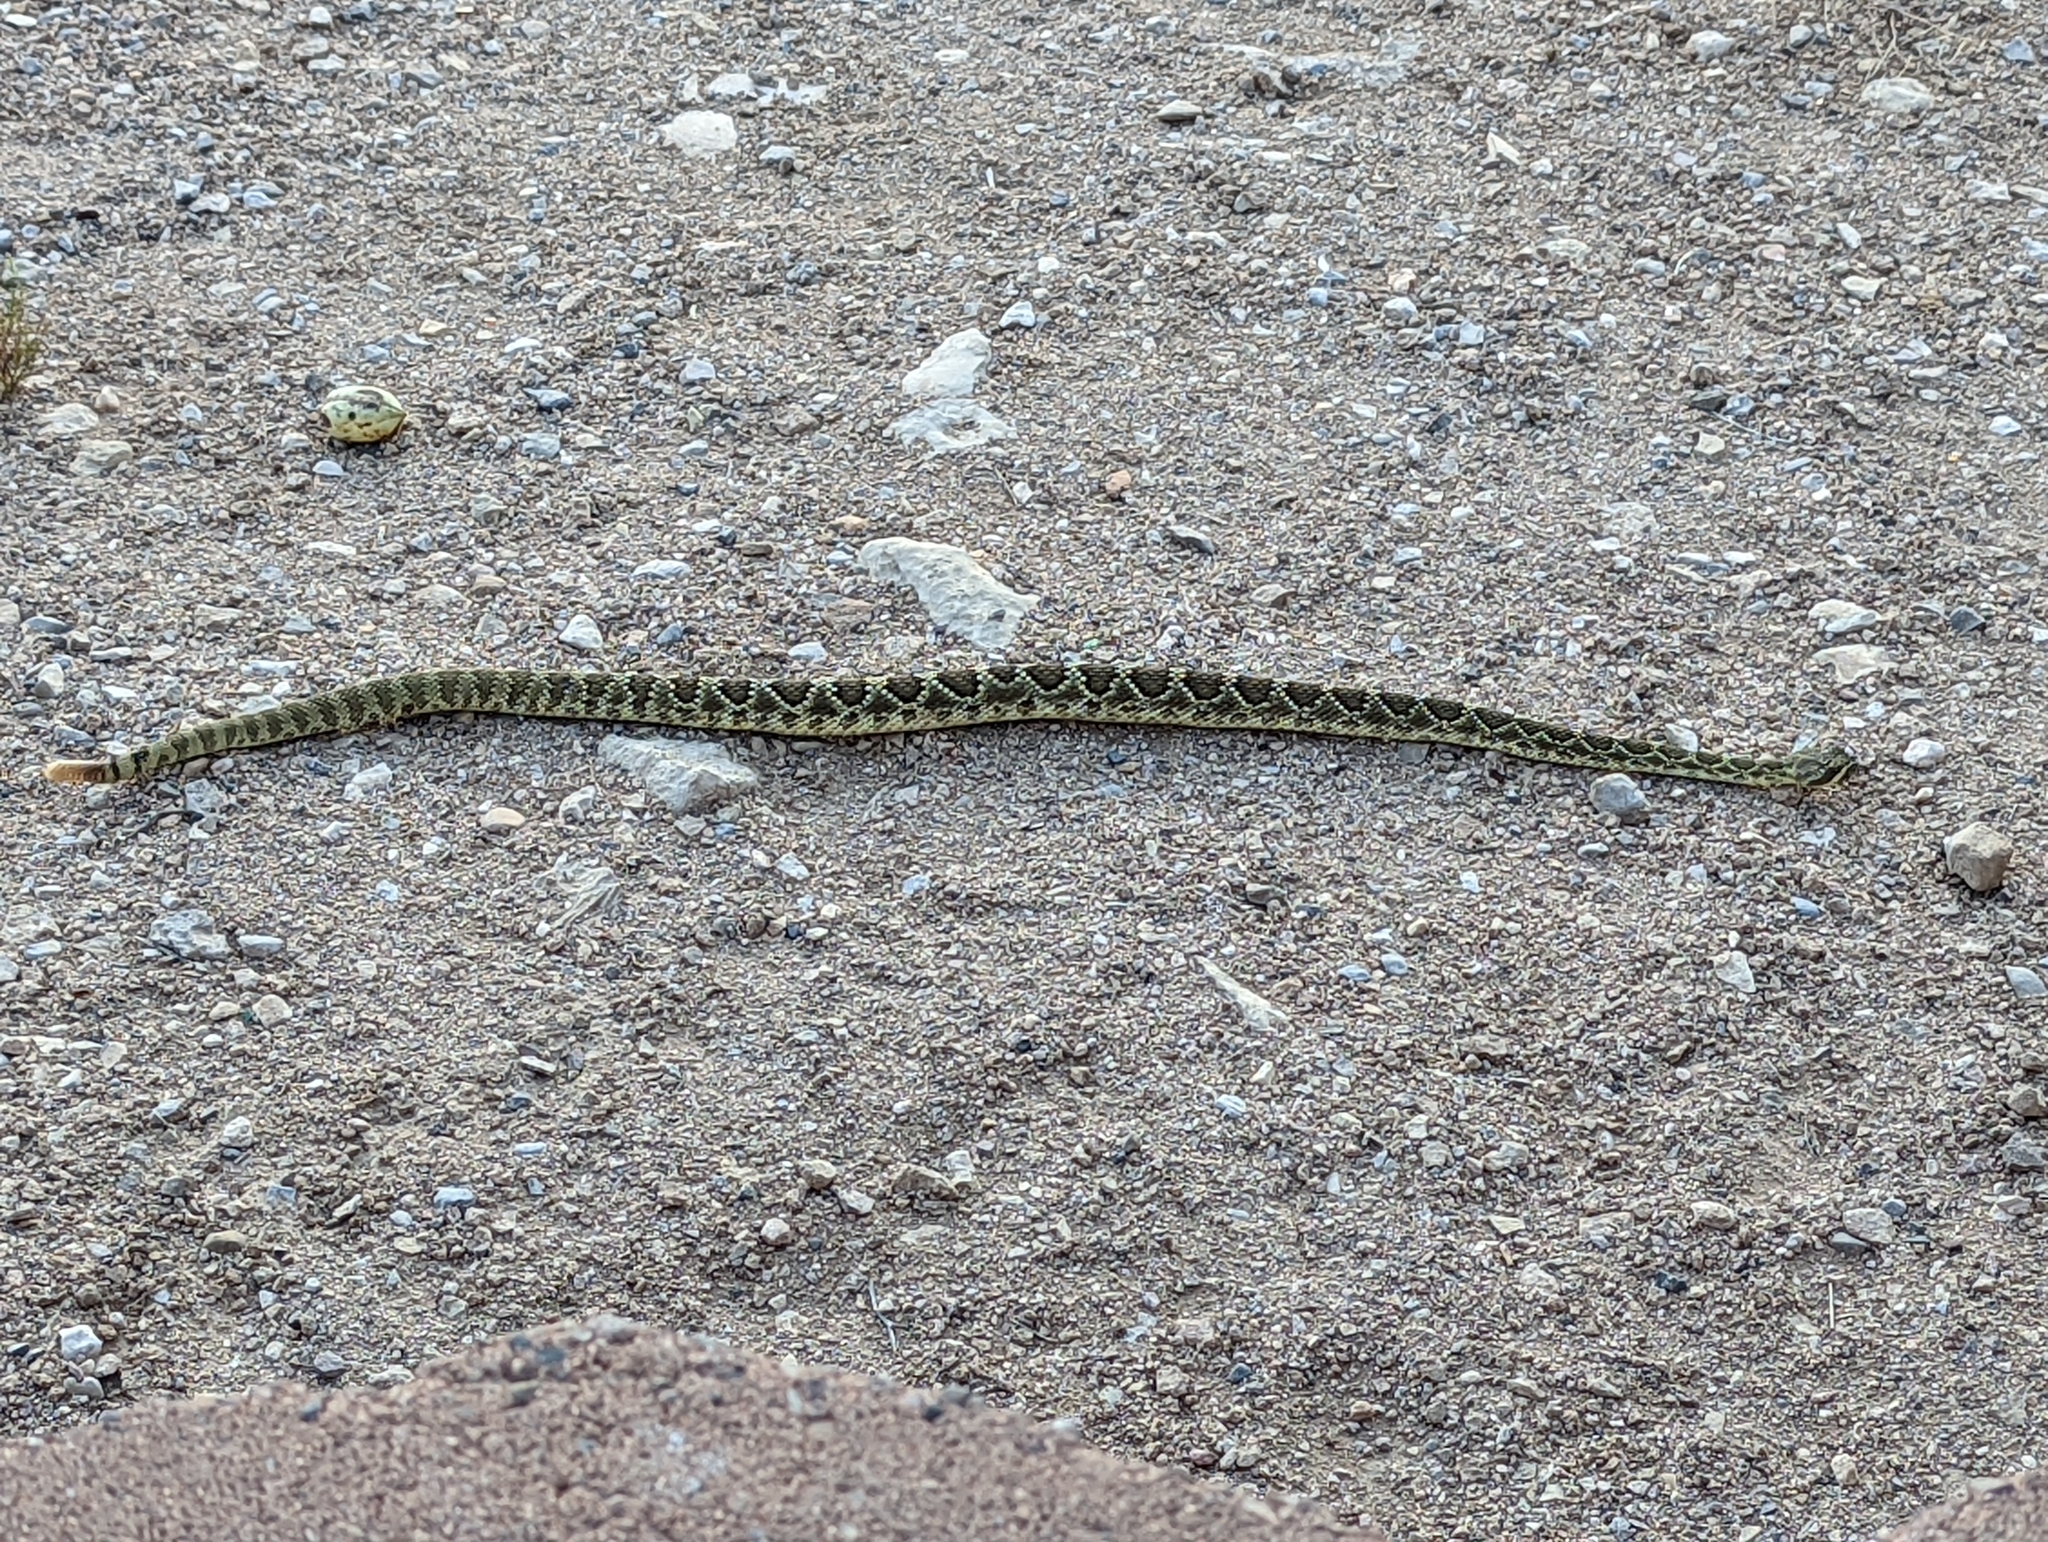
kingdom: Animalia
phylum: Chordata
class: Squamata
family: Viperidae
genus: Crotalus
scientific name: Crotalus scutulatus
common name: Scutulatus
